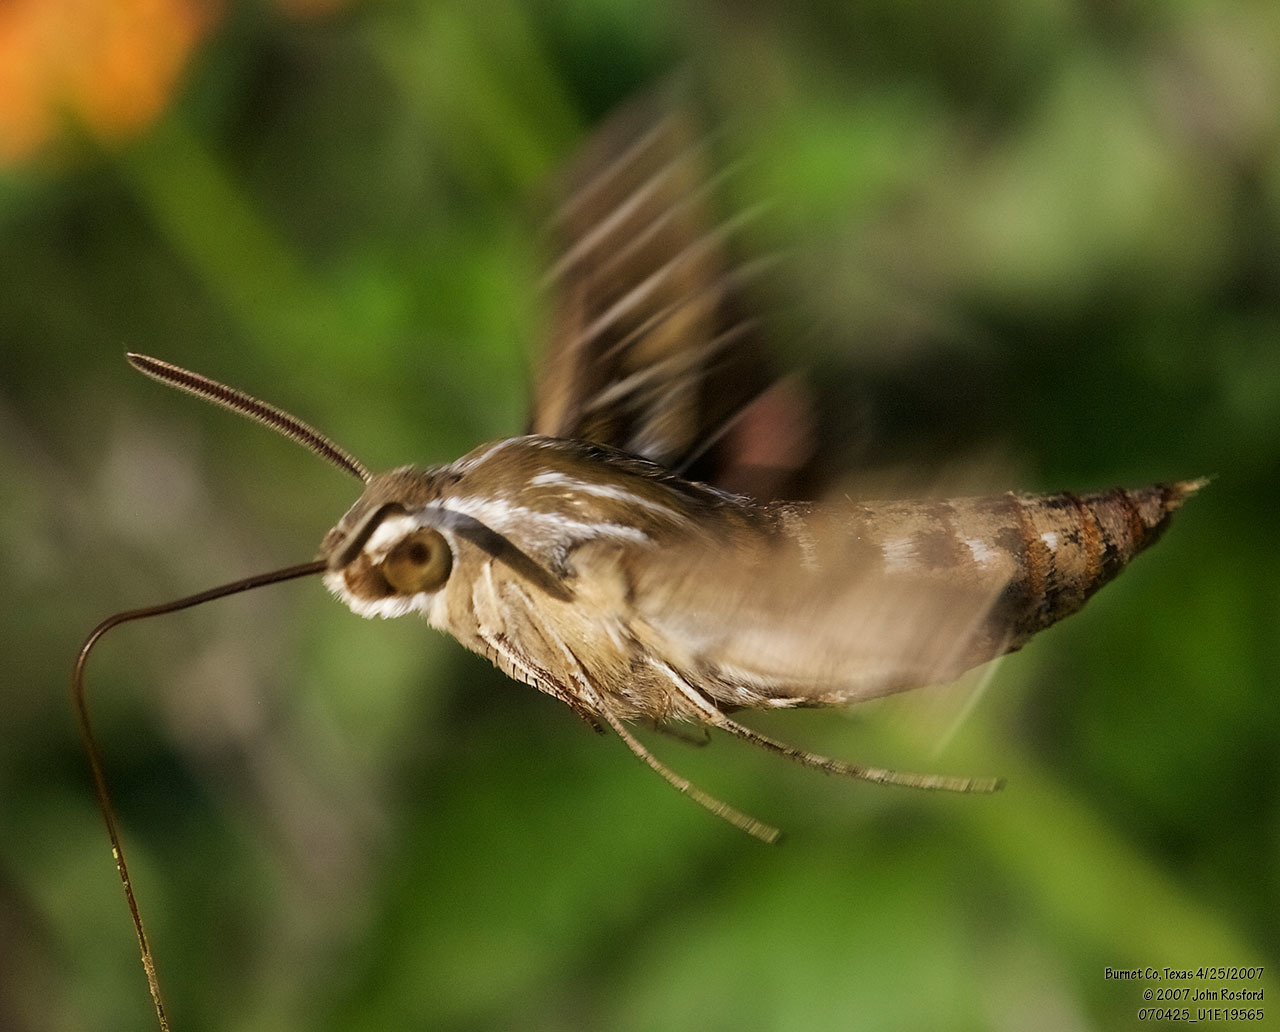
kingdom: Animalia
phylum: Arthropoda
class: Insecta
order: Lepidoptera
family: Sphingidae
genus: Hyles
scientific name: Hyles lineata
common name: White-lined sphinx
